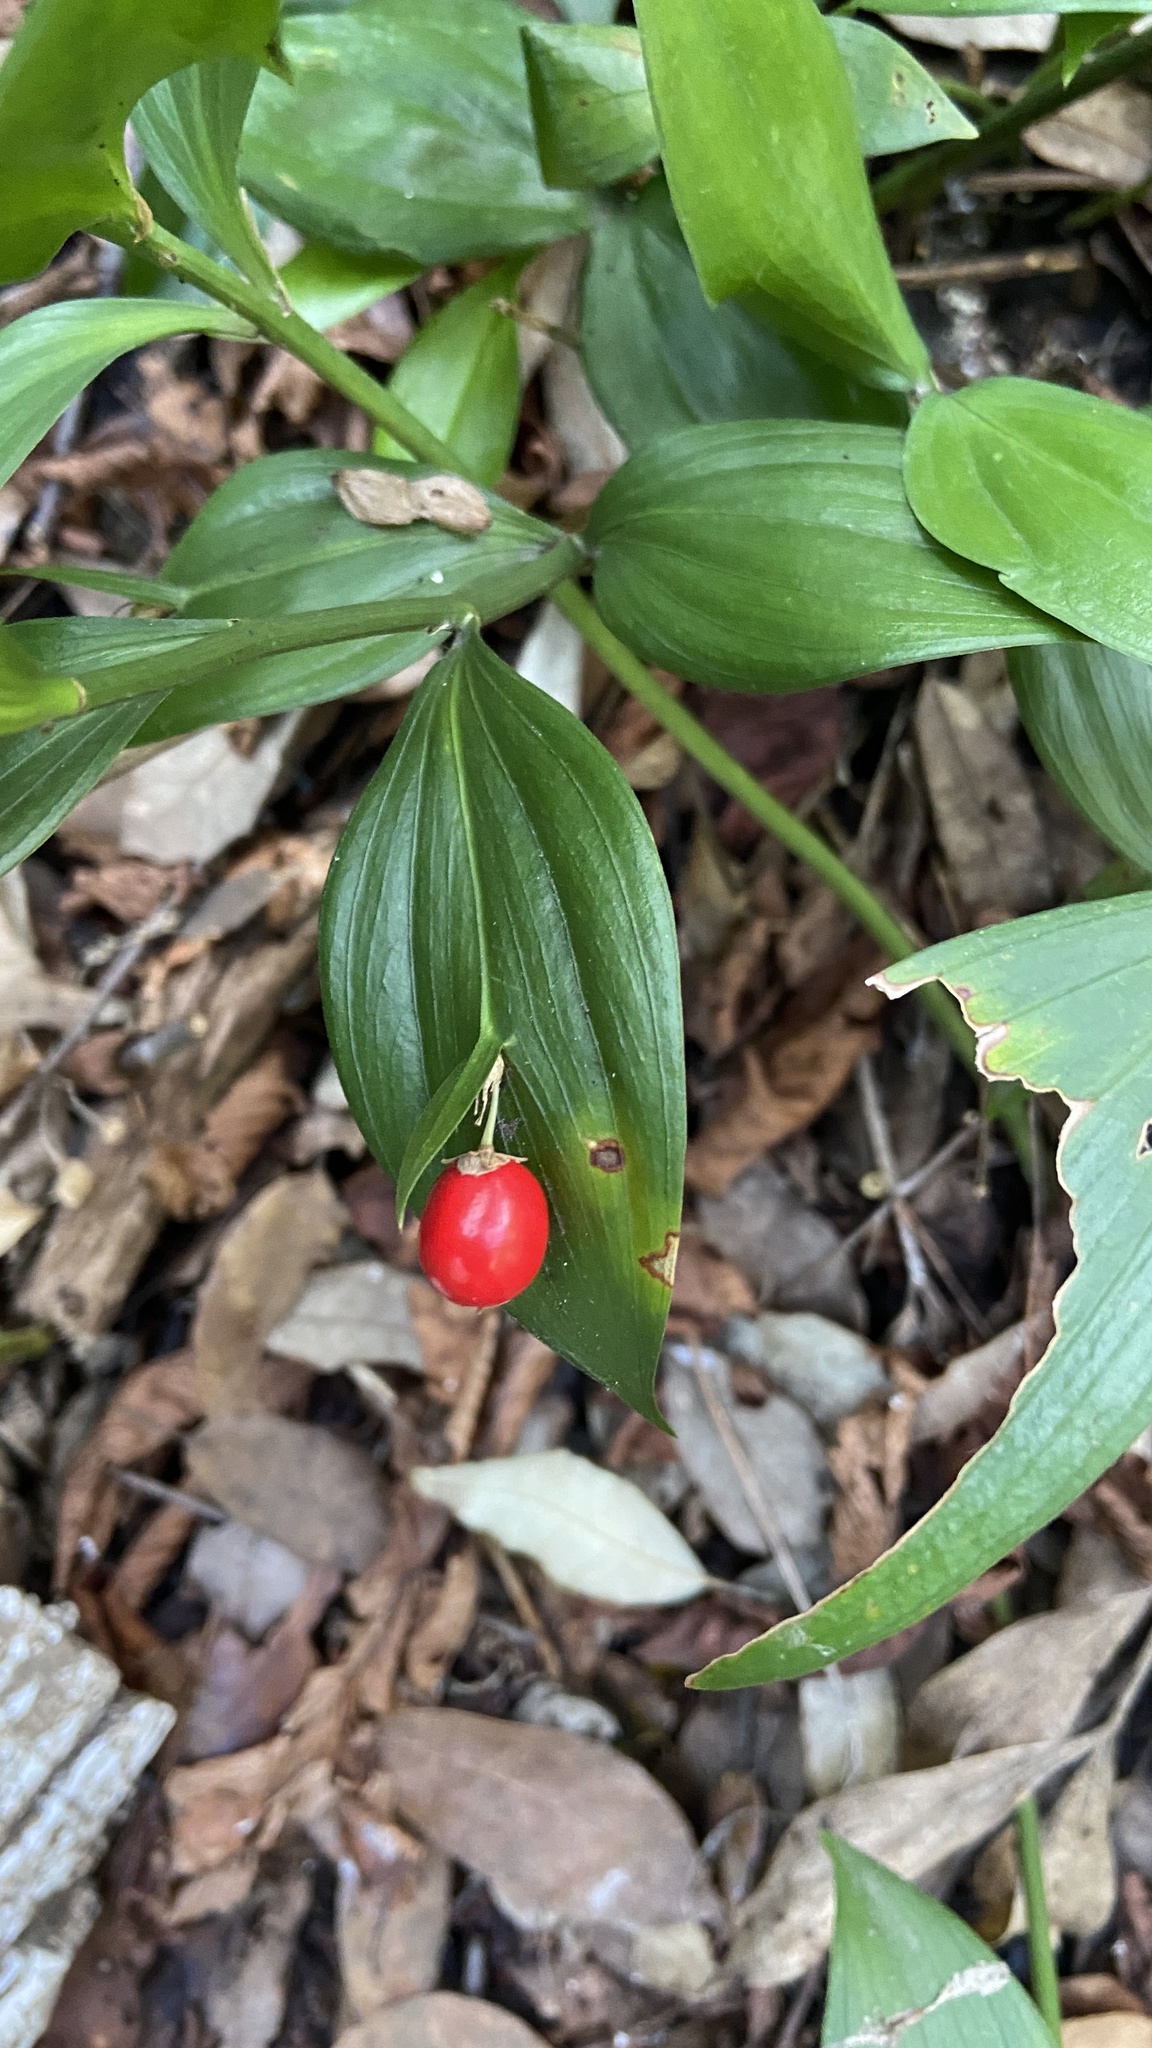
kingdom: Plantae
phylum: Tracheophyta
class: Liliopsida
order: Asparagales
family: Asparagaceae
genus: Ruscus
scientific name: Ruscus hypoglossum
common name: Spineless butcher's-broom
